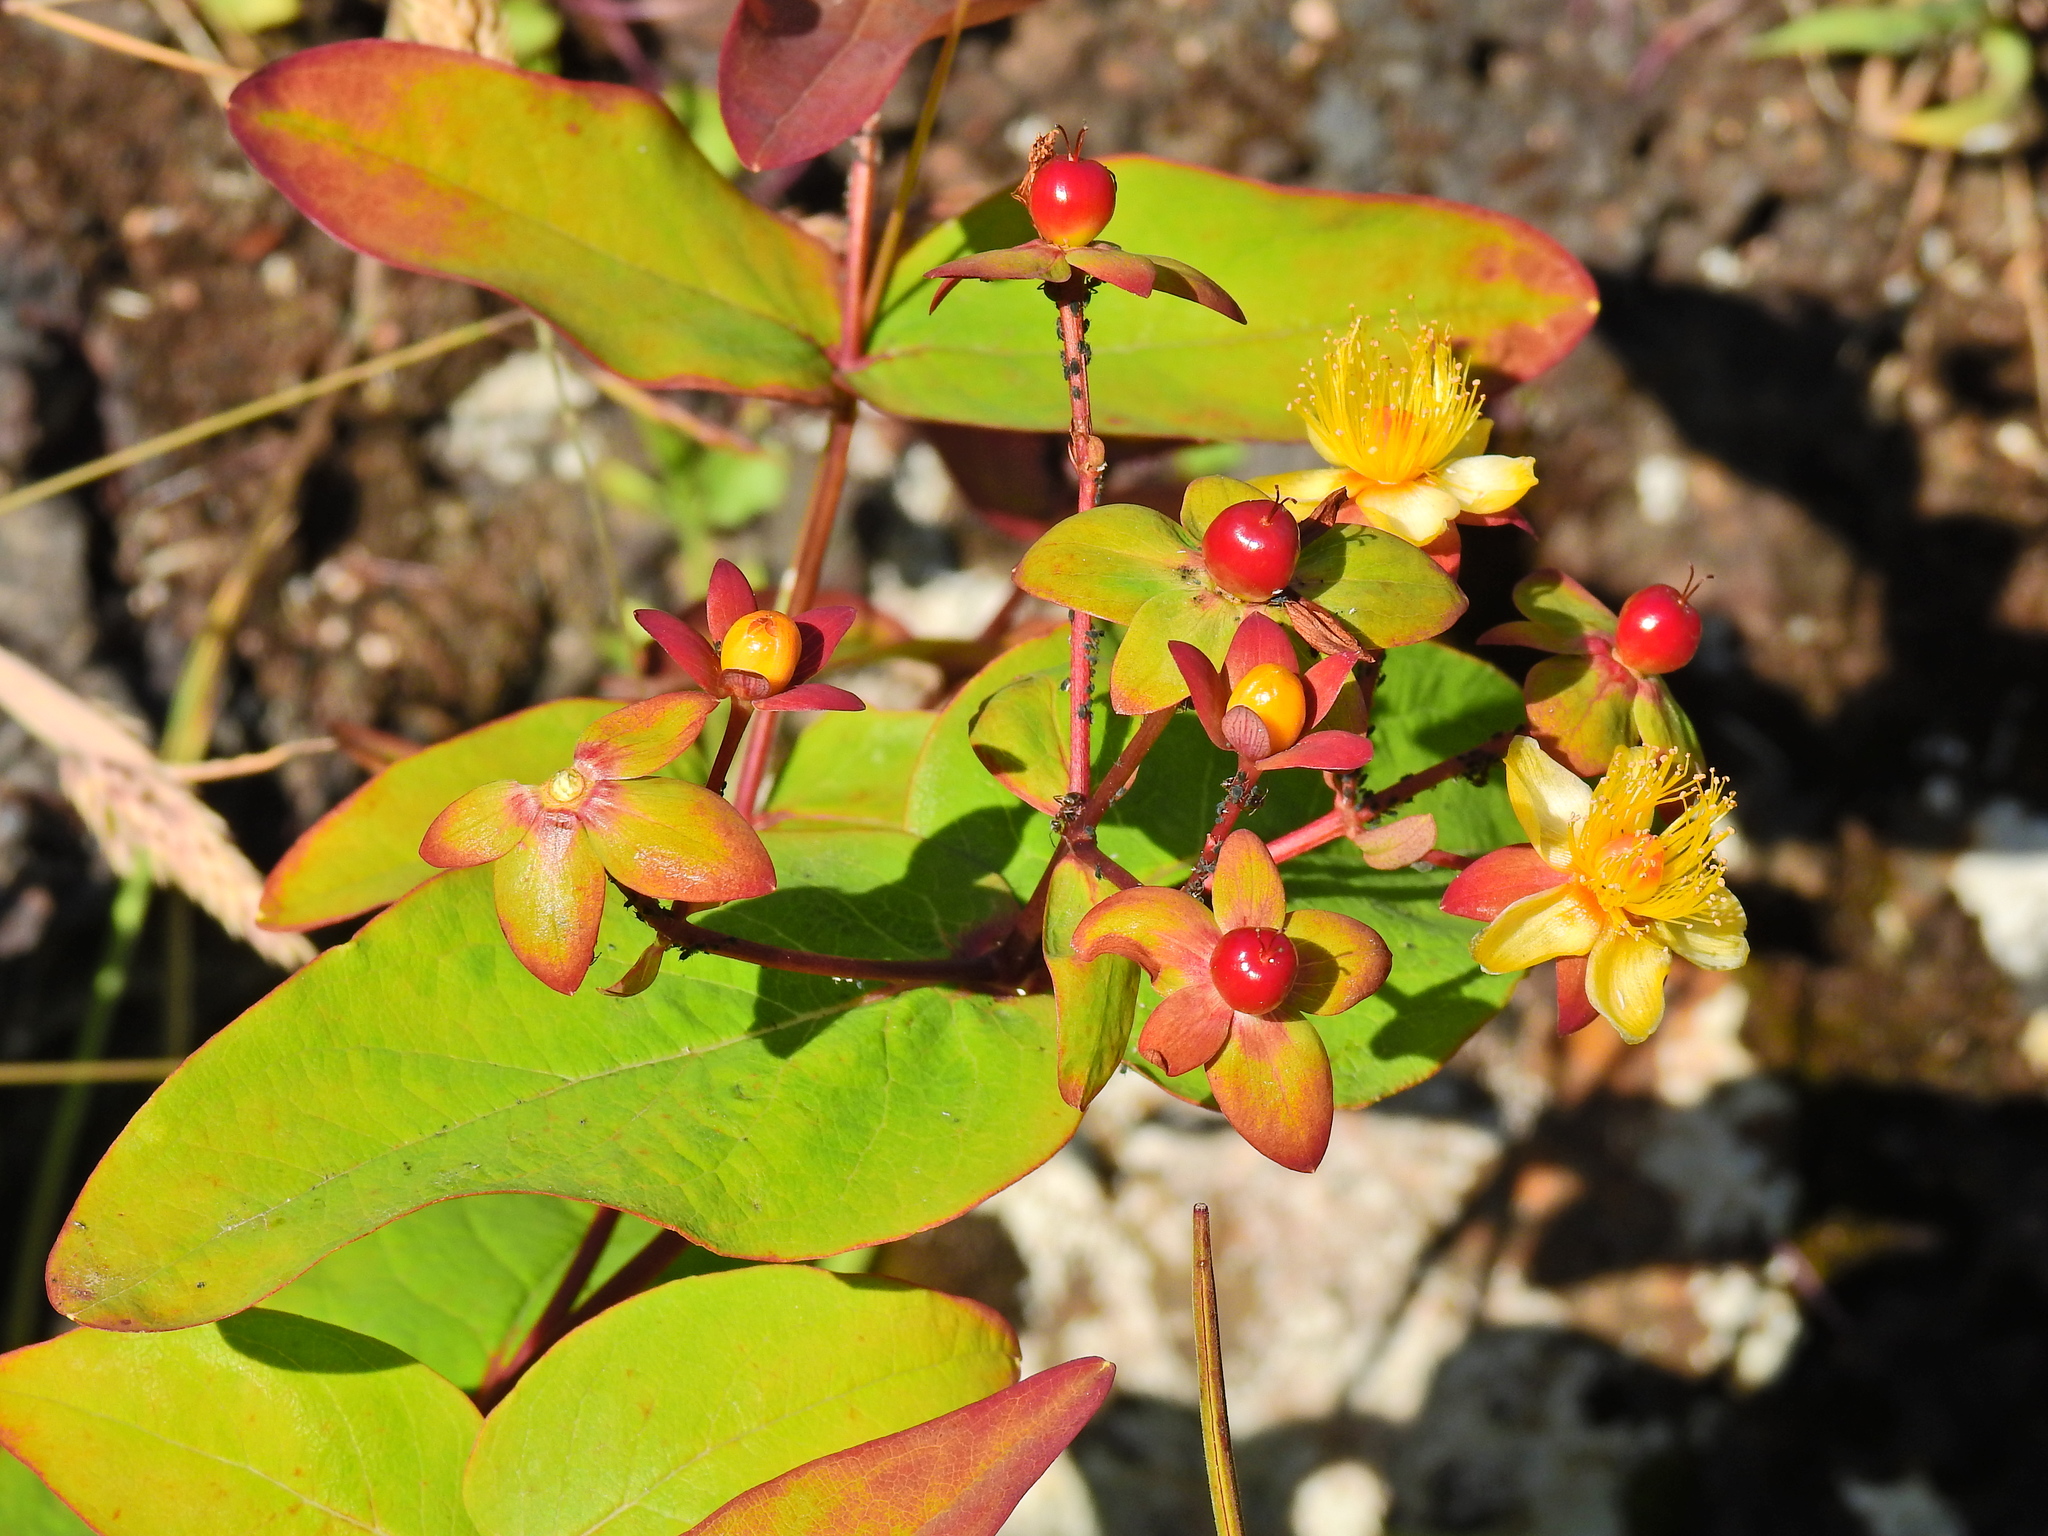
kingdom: Plantae
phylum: Tracheophyta
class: Magnoliopsida
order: Malpighiales
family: Hypericaceae
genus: Hypericum
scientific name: Hypericum androsaemum
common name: Sweet-amber
